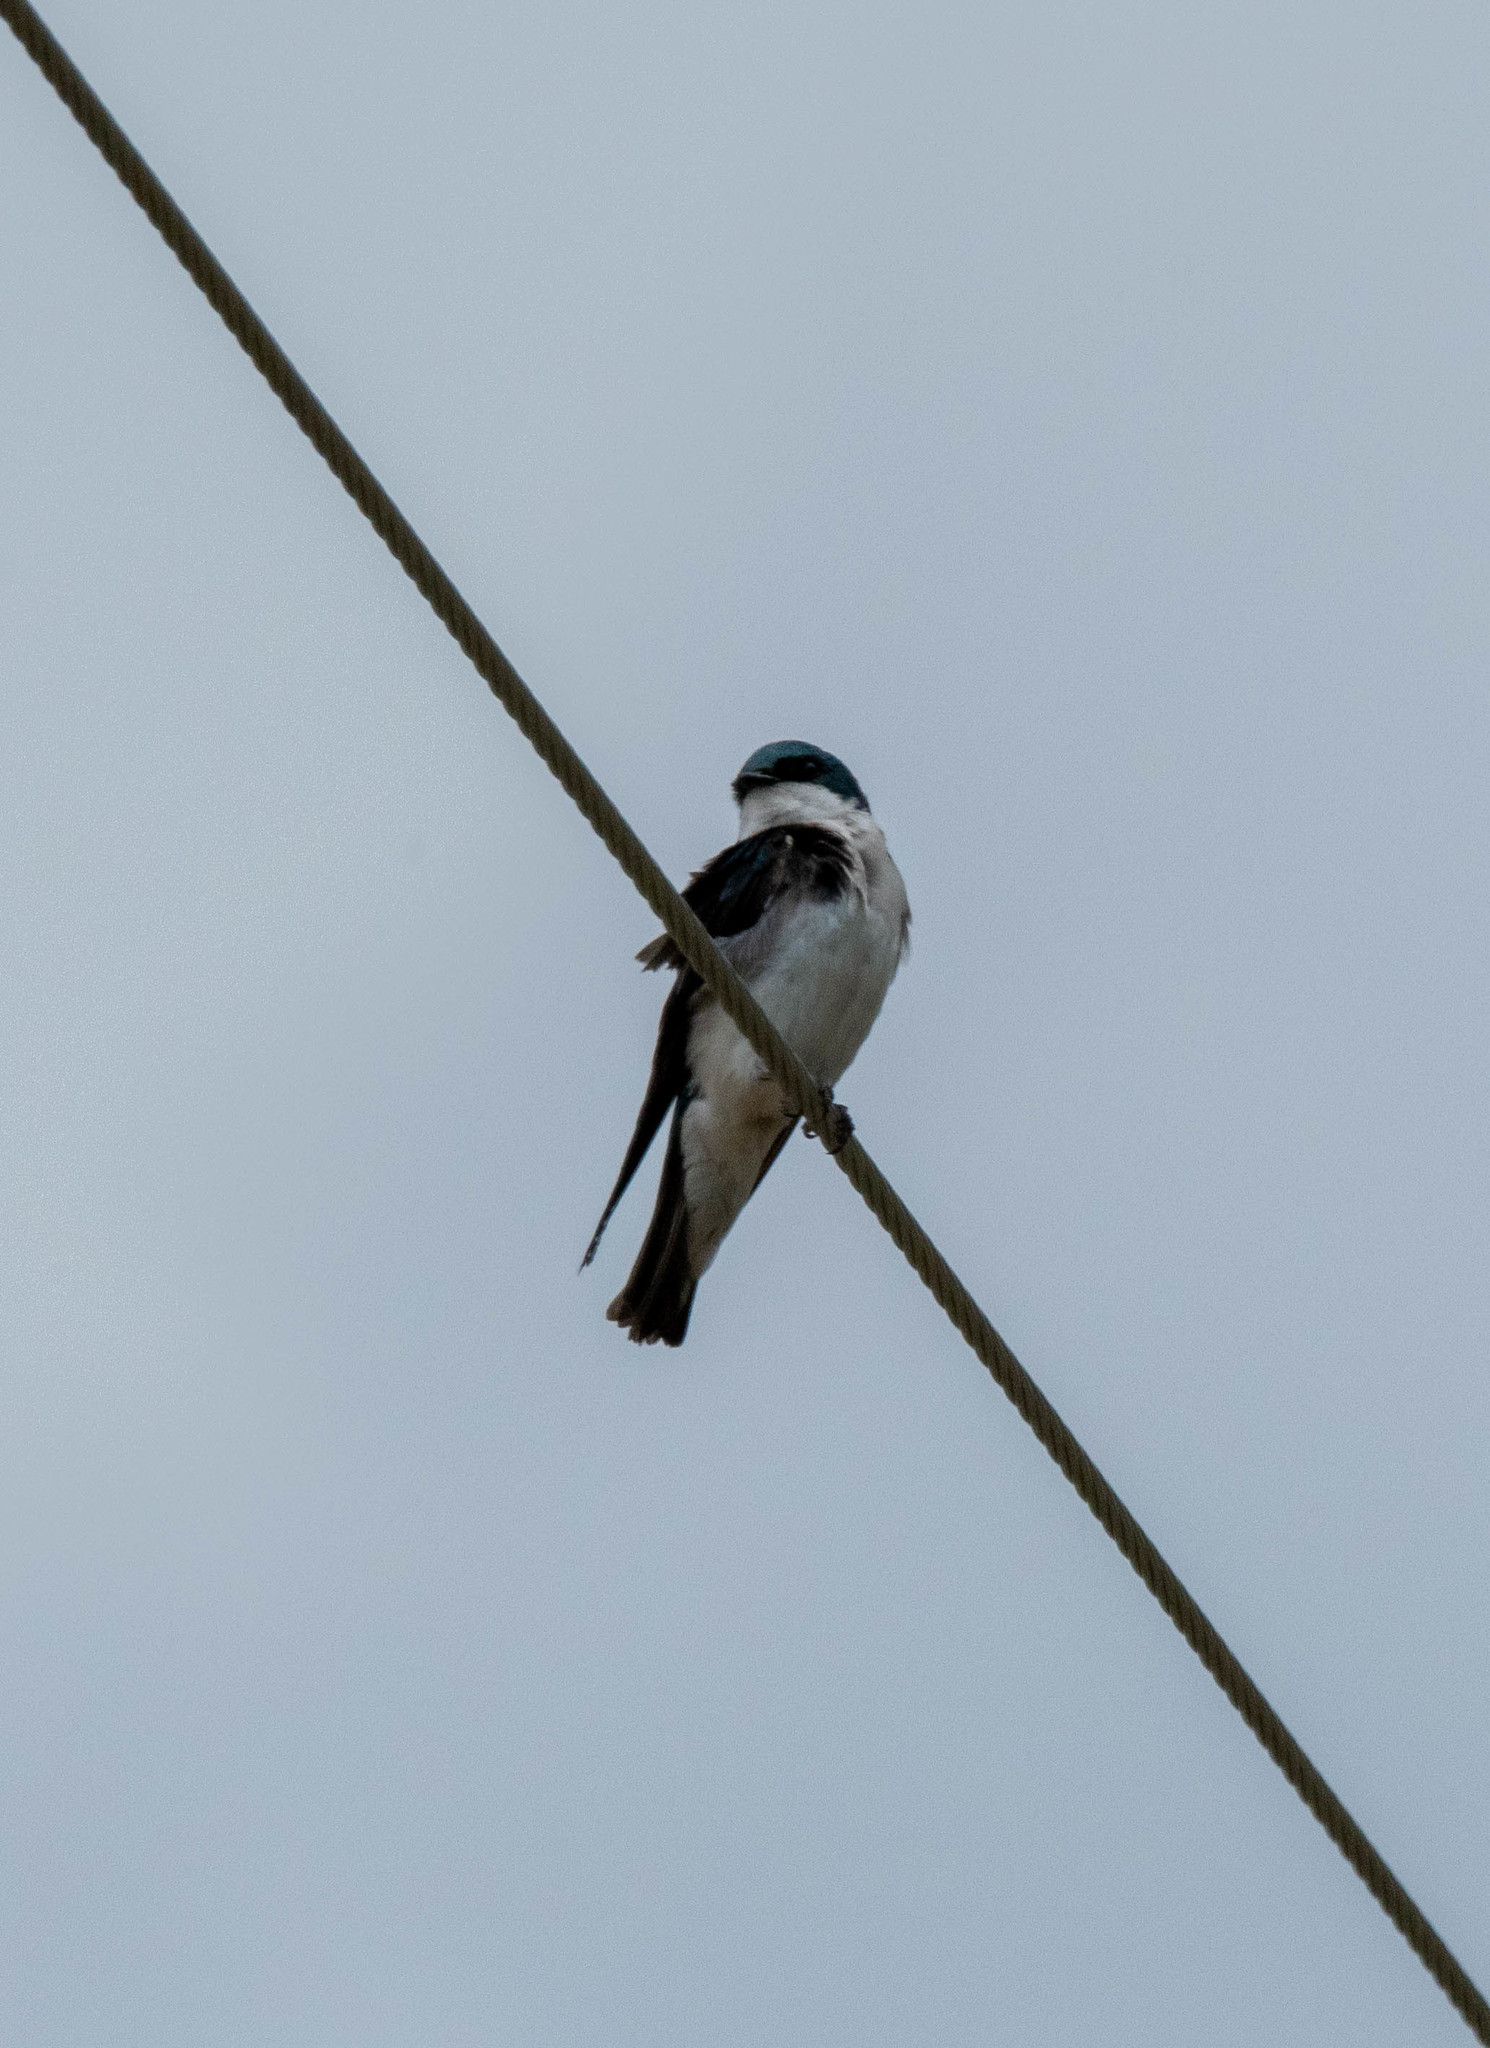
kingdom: Animalia
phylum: Chordata
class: Aves
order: Passeriformes
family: Hirundinidae
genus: Tachycineta
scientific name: Tachycineta bicolor
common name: Tree swallow
